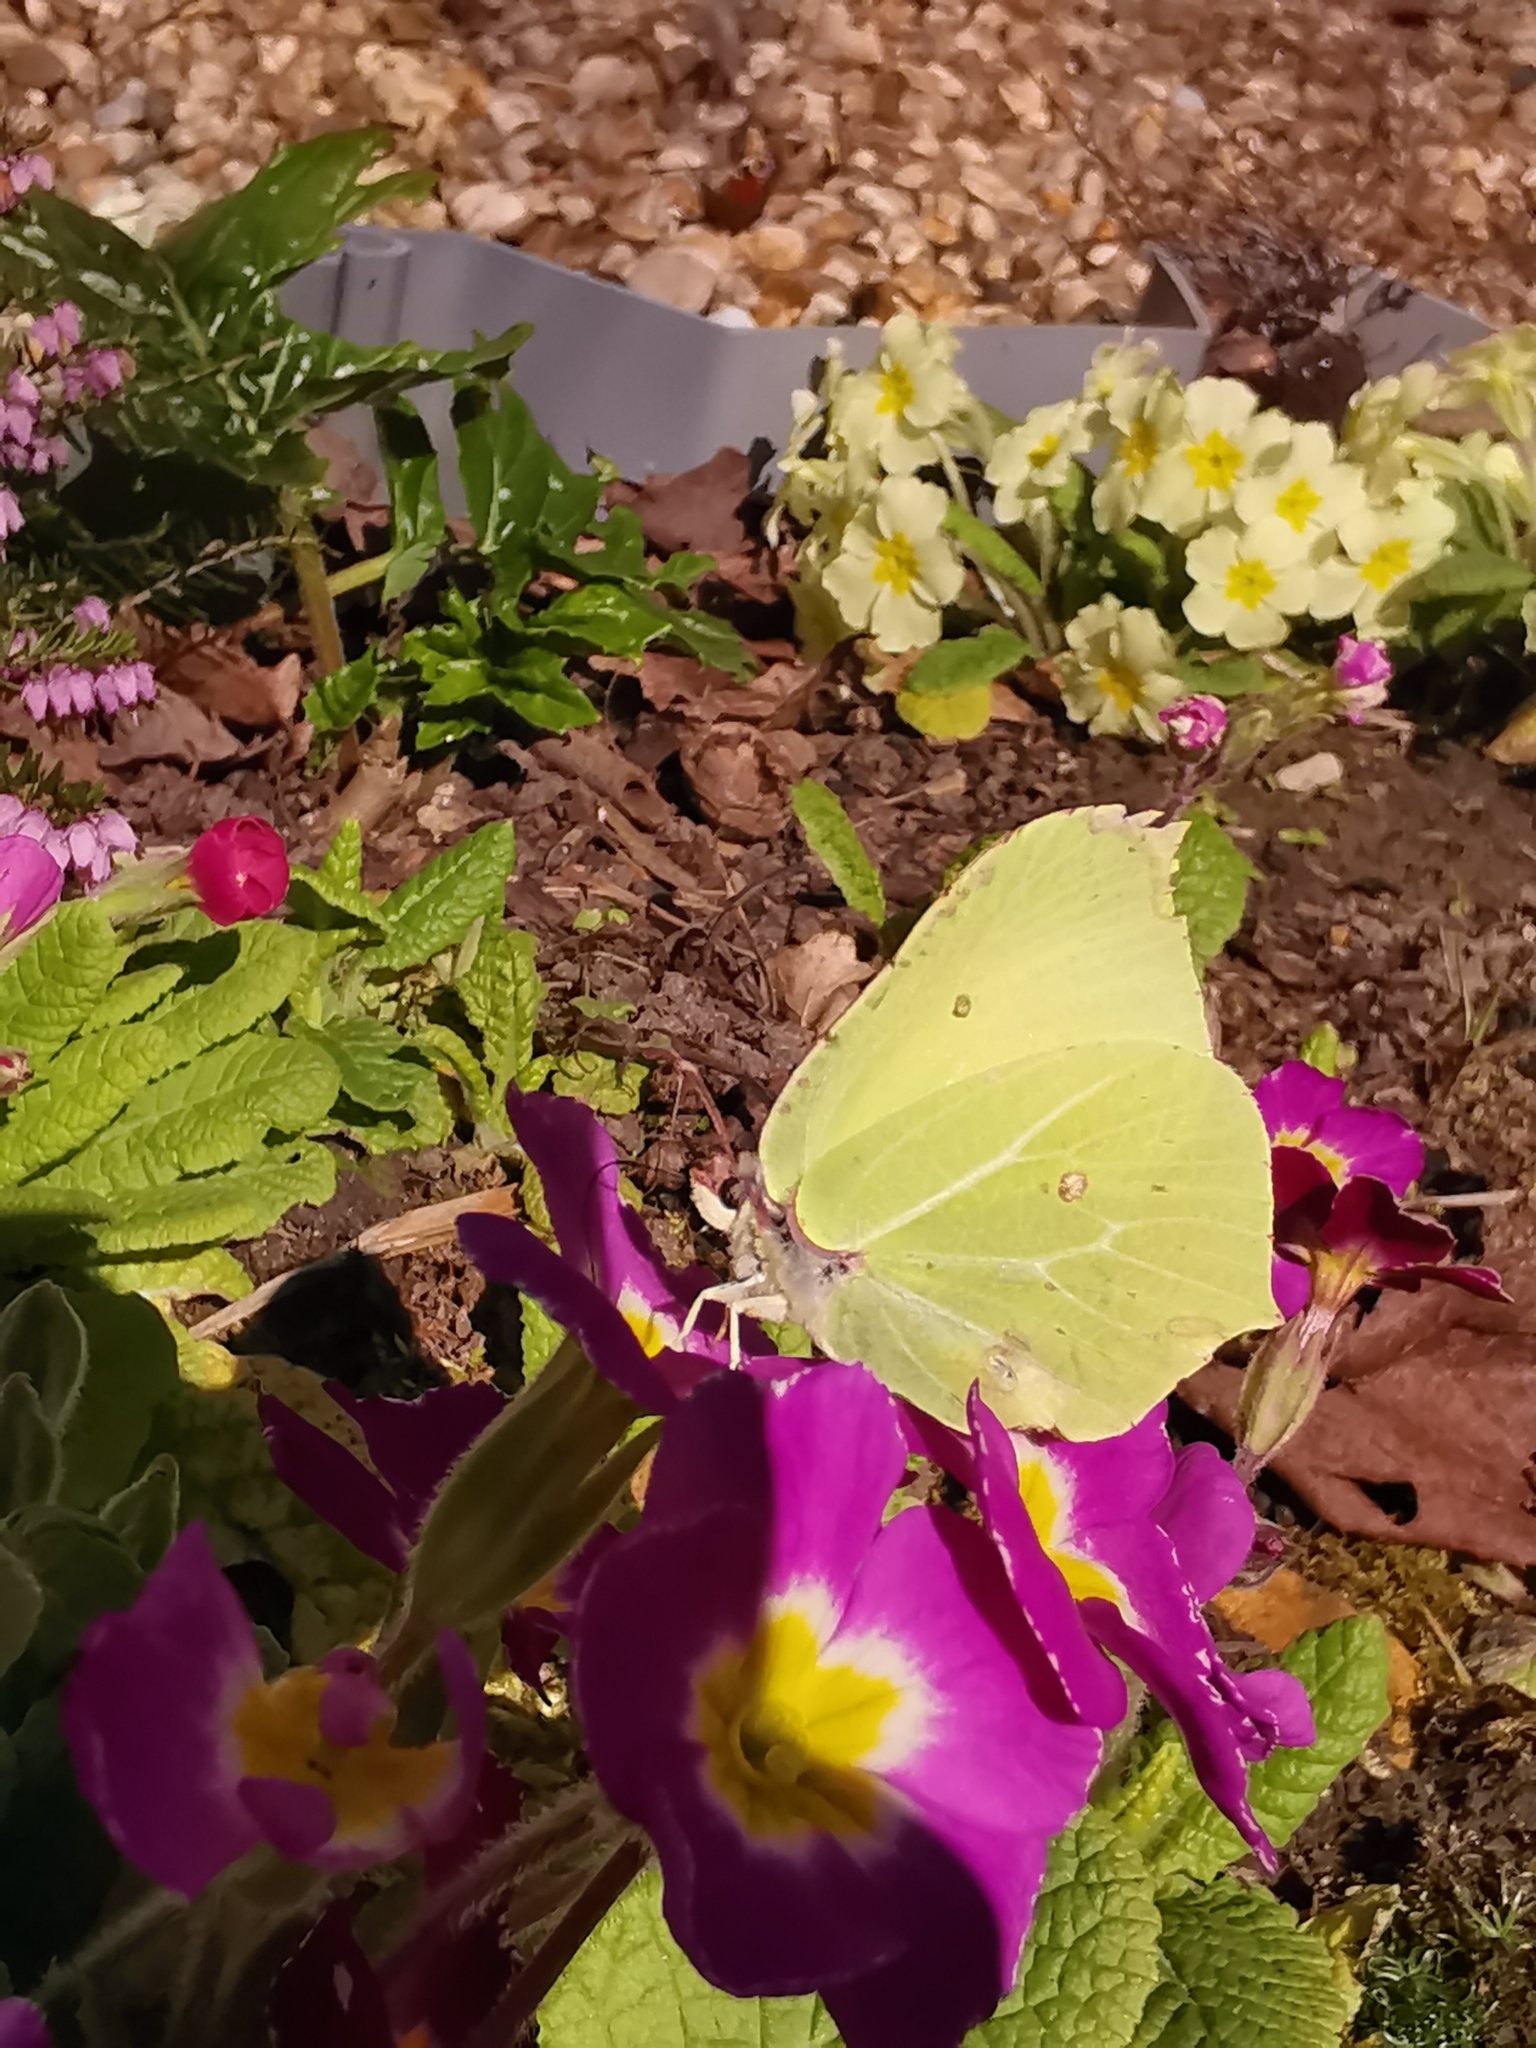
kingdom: Animalia
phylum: Arthropoda
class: Insecta
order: Lepidoptera
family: Pieridae
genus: Gonepteryx
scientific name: Gonepteryx rhamni
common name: Brimstone
